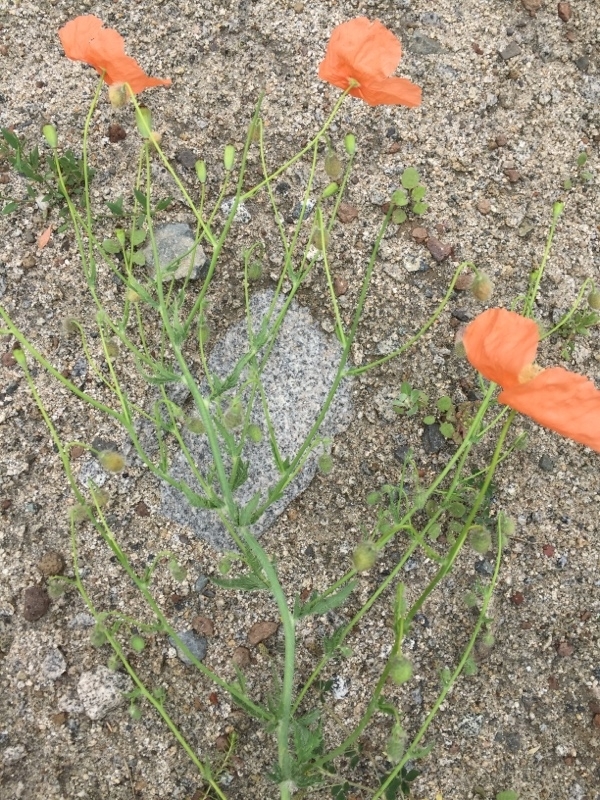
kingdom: Plantae
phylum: Tracheophyta
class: Magnoliopsida
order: Ranunculales
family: Papaveraceae
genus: Papaver
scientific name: Papaver armeniacum
